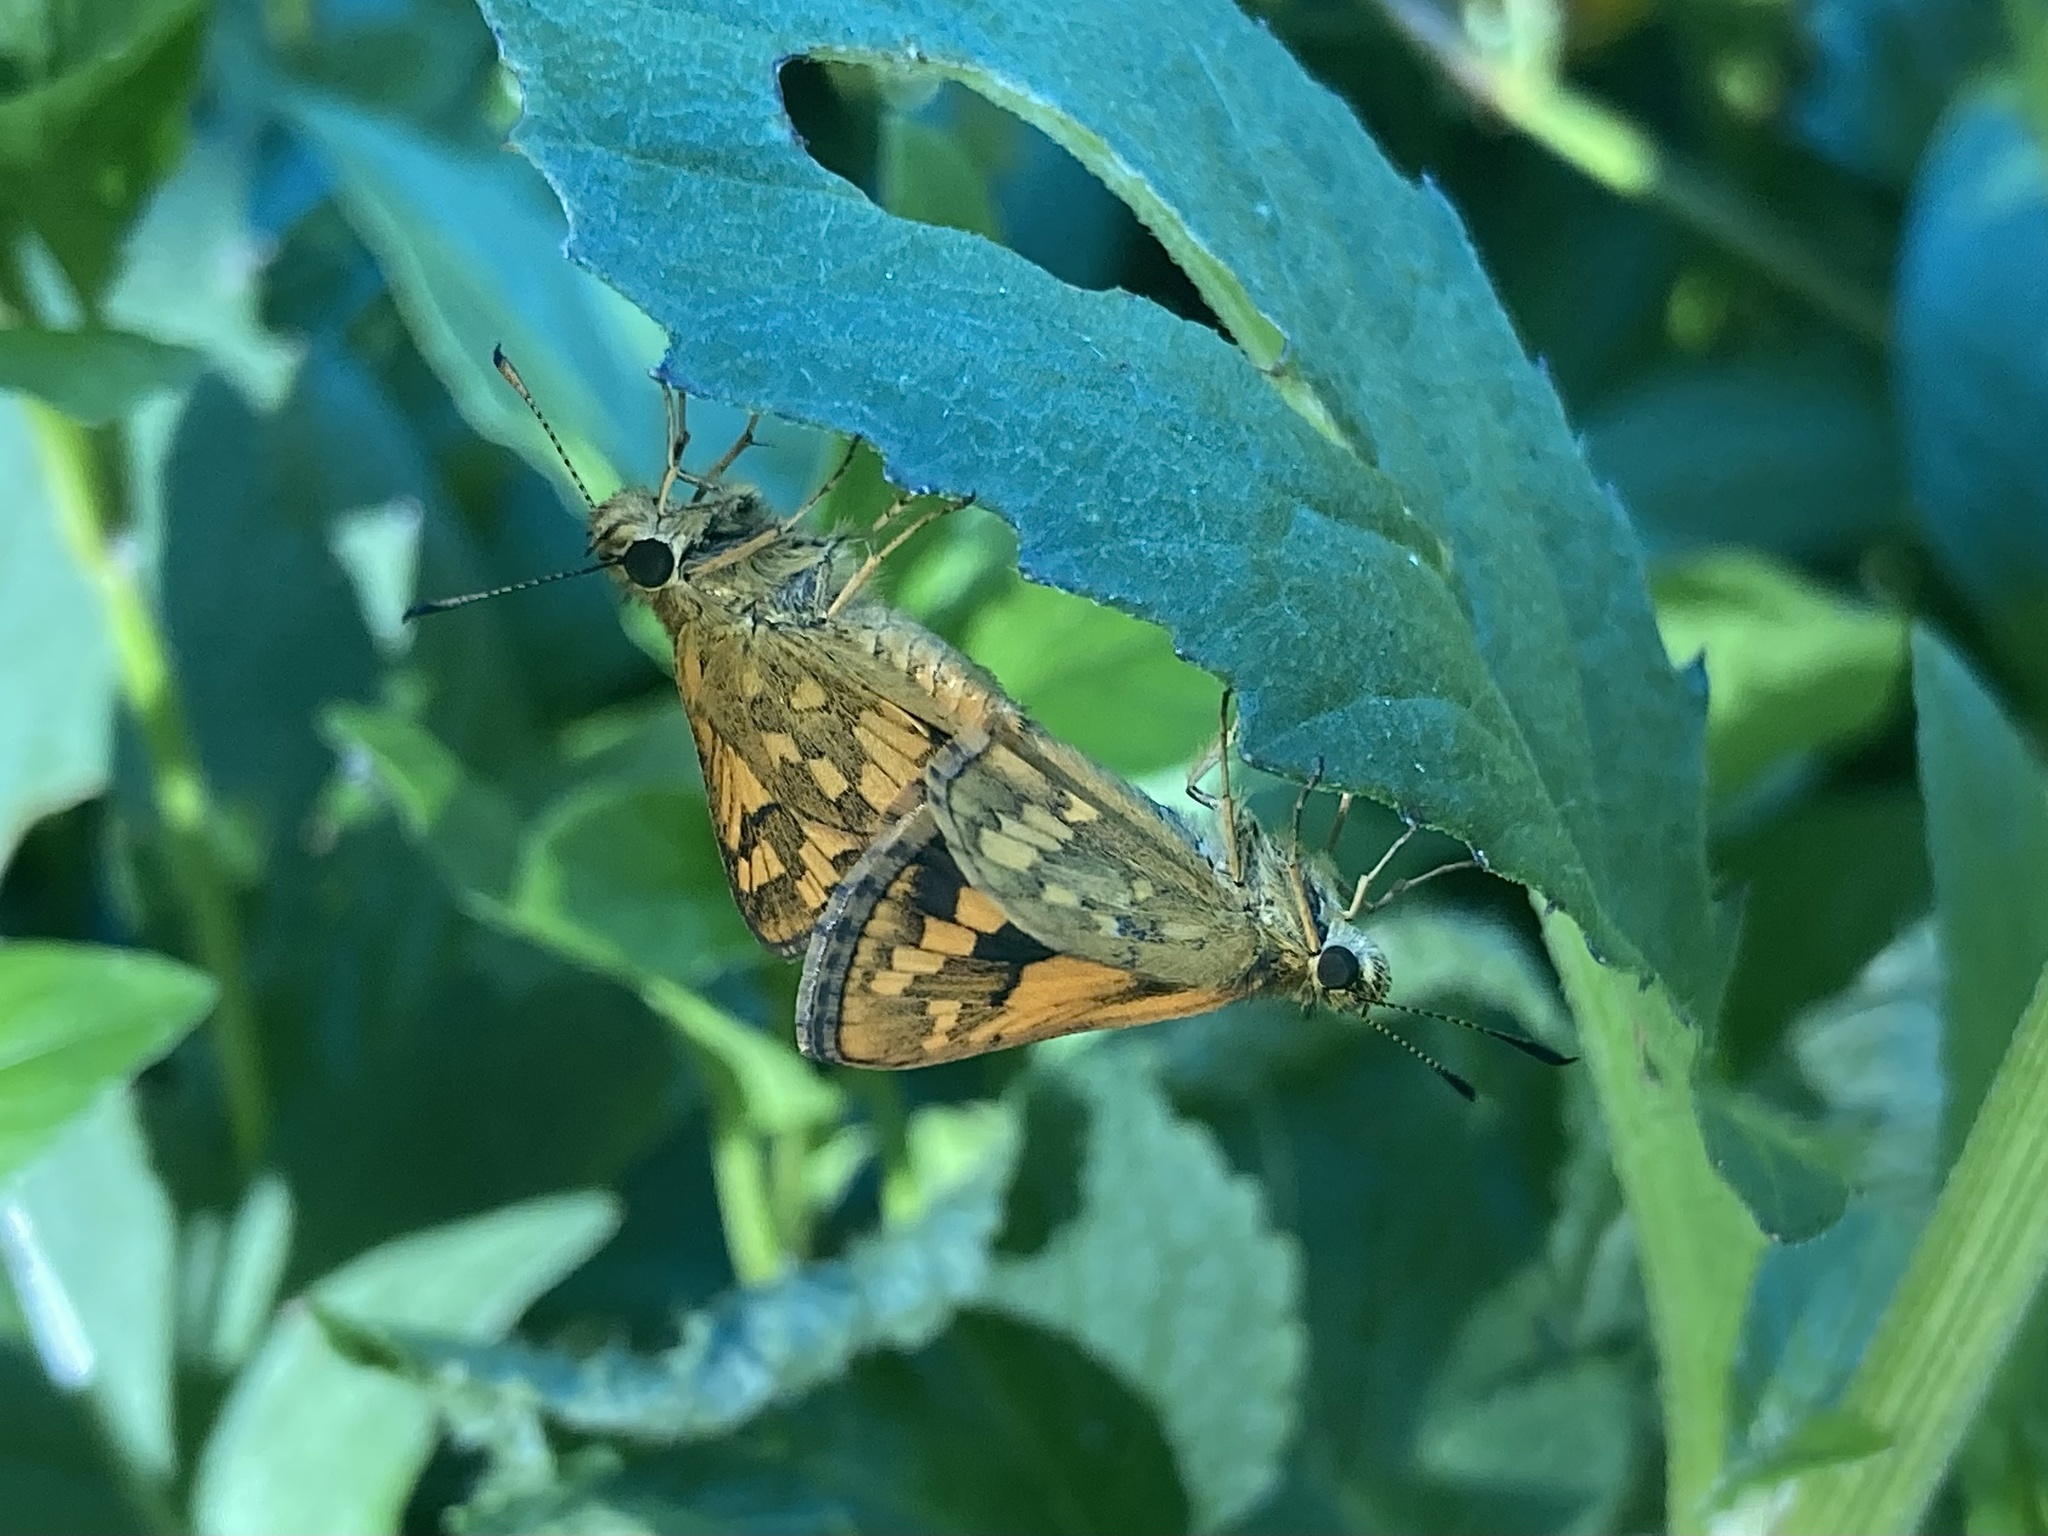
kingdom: Animalia
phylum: Arthropoda
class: Insecta
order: Lepidoptera
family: Hesperiidae
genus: Suniana
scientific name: Suniana sunias
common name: Wide-brand grass-dart
